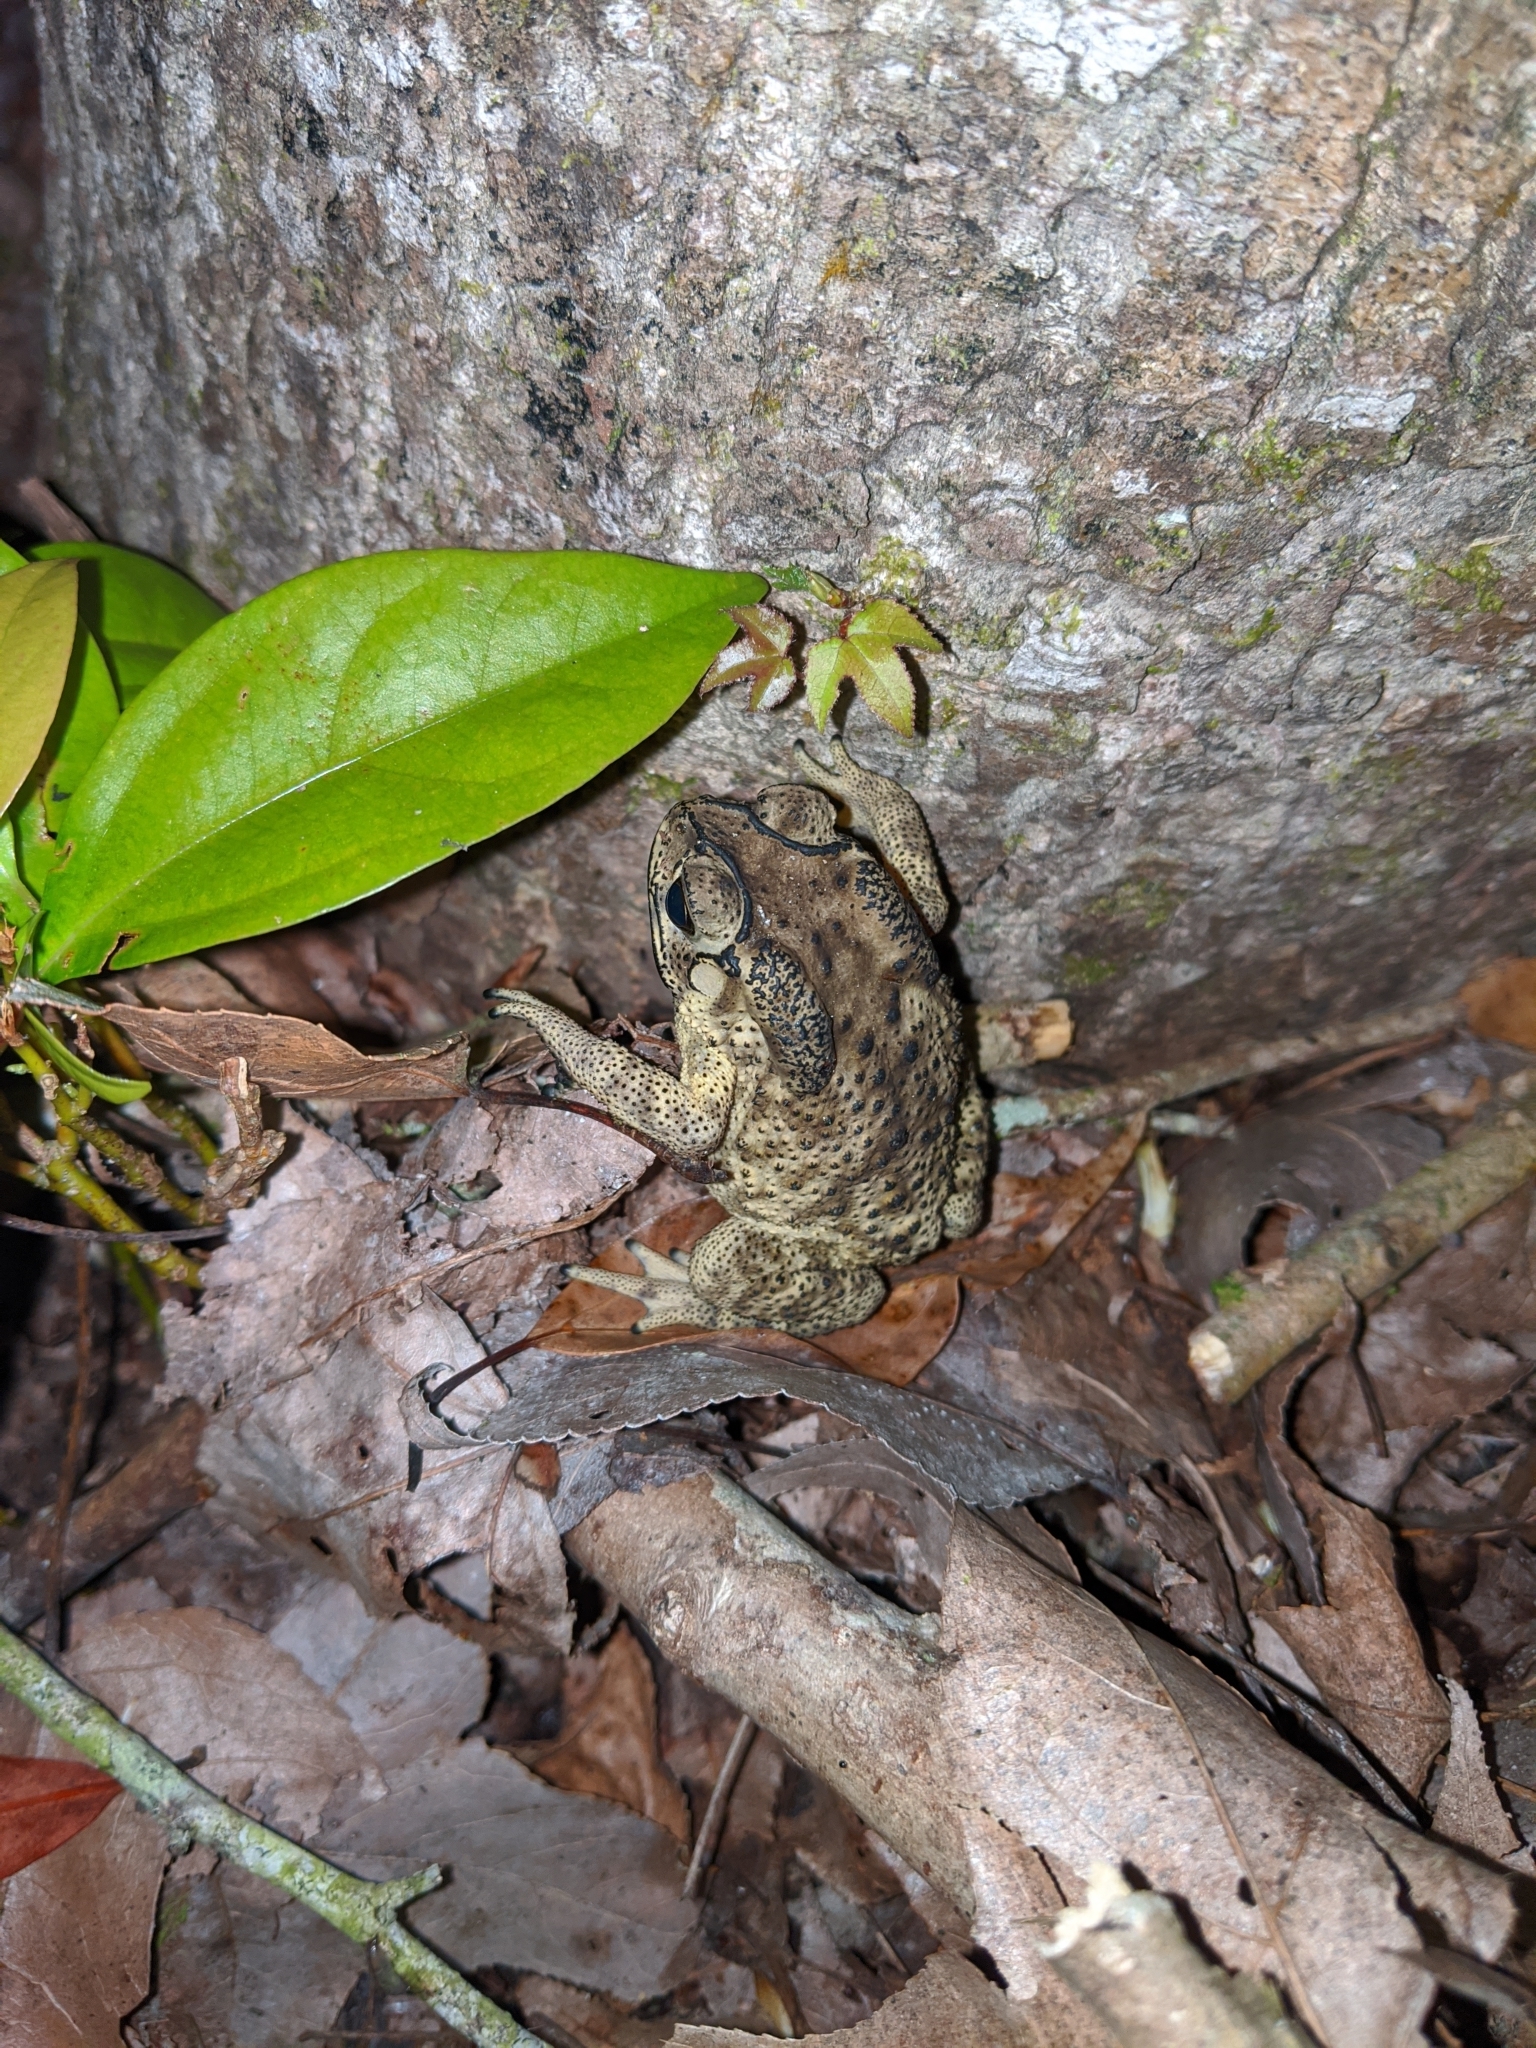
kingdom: Animalia
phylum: Chordata
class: Amphibia
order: Anura
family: Bufonidae
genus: Duttaphrynus
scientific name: Duttaphrynus melanostictus
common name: Common sunda toad
